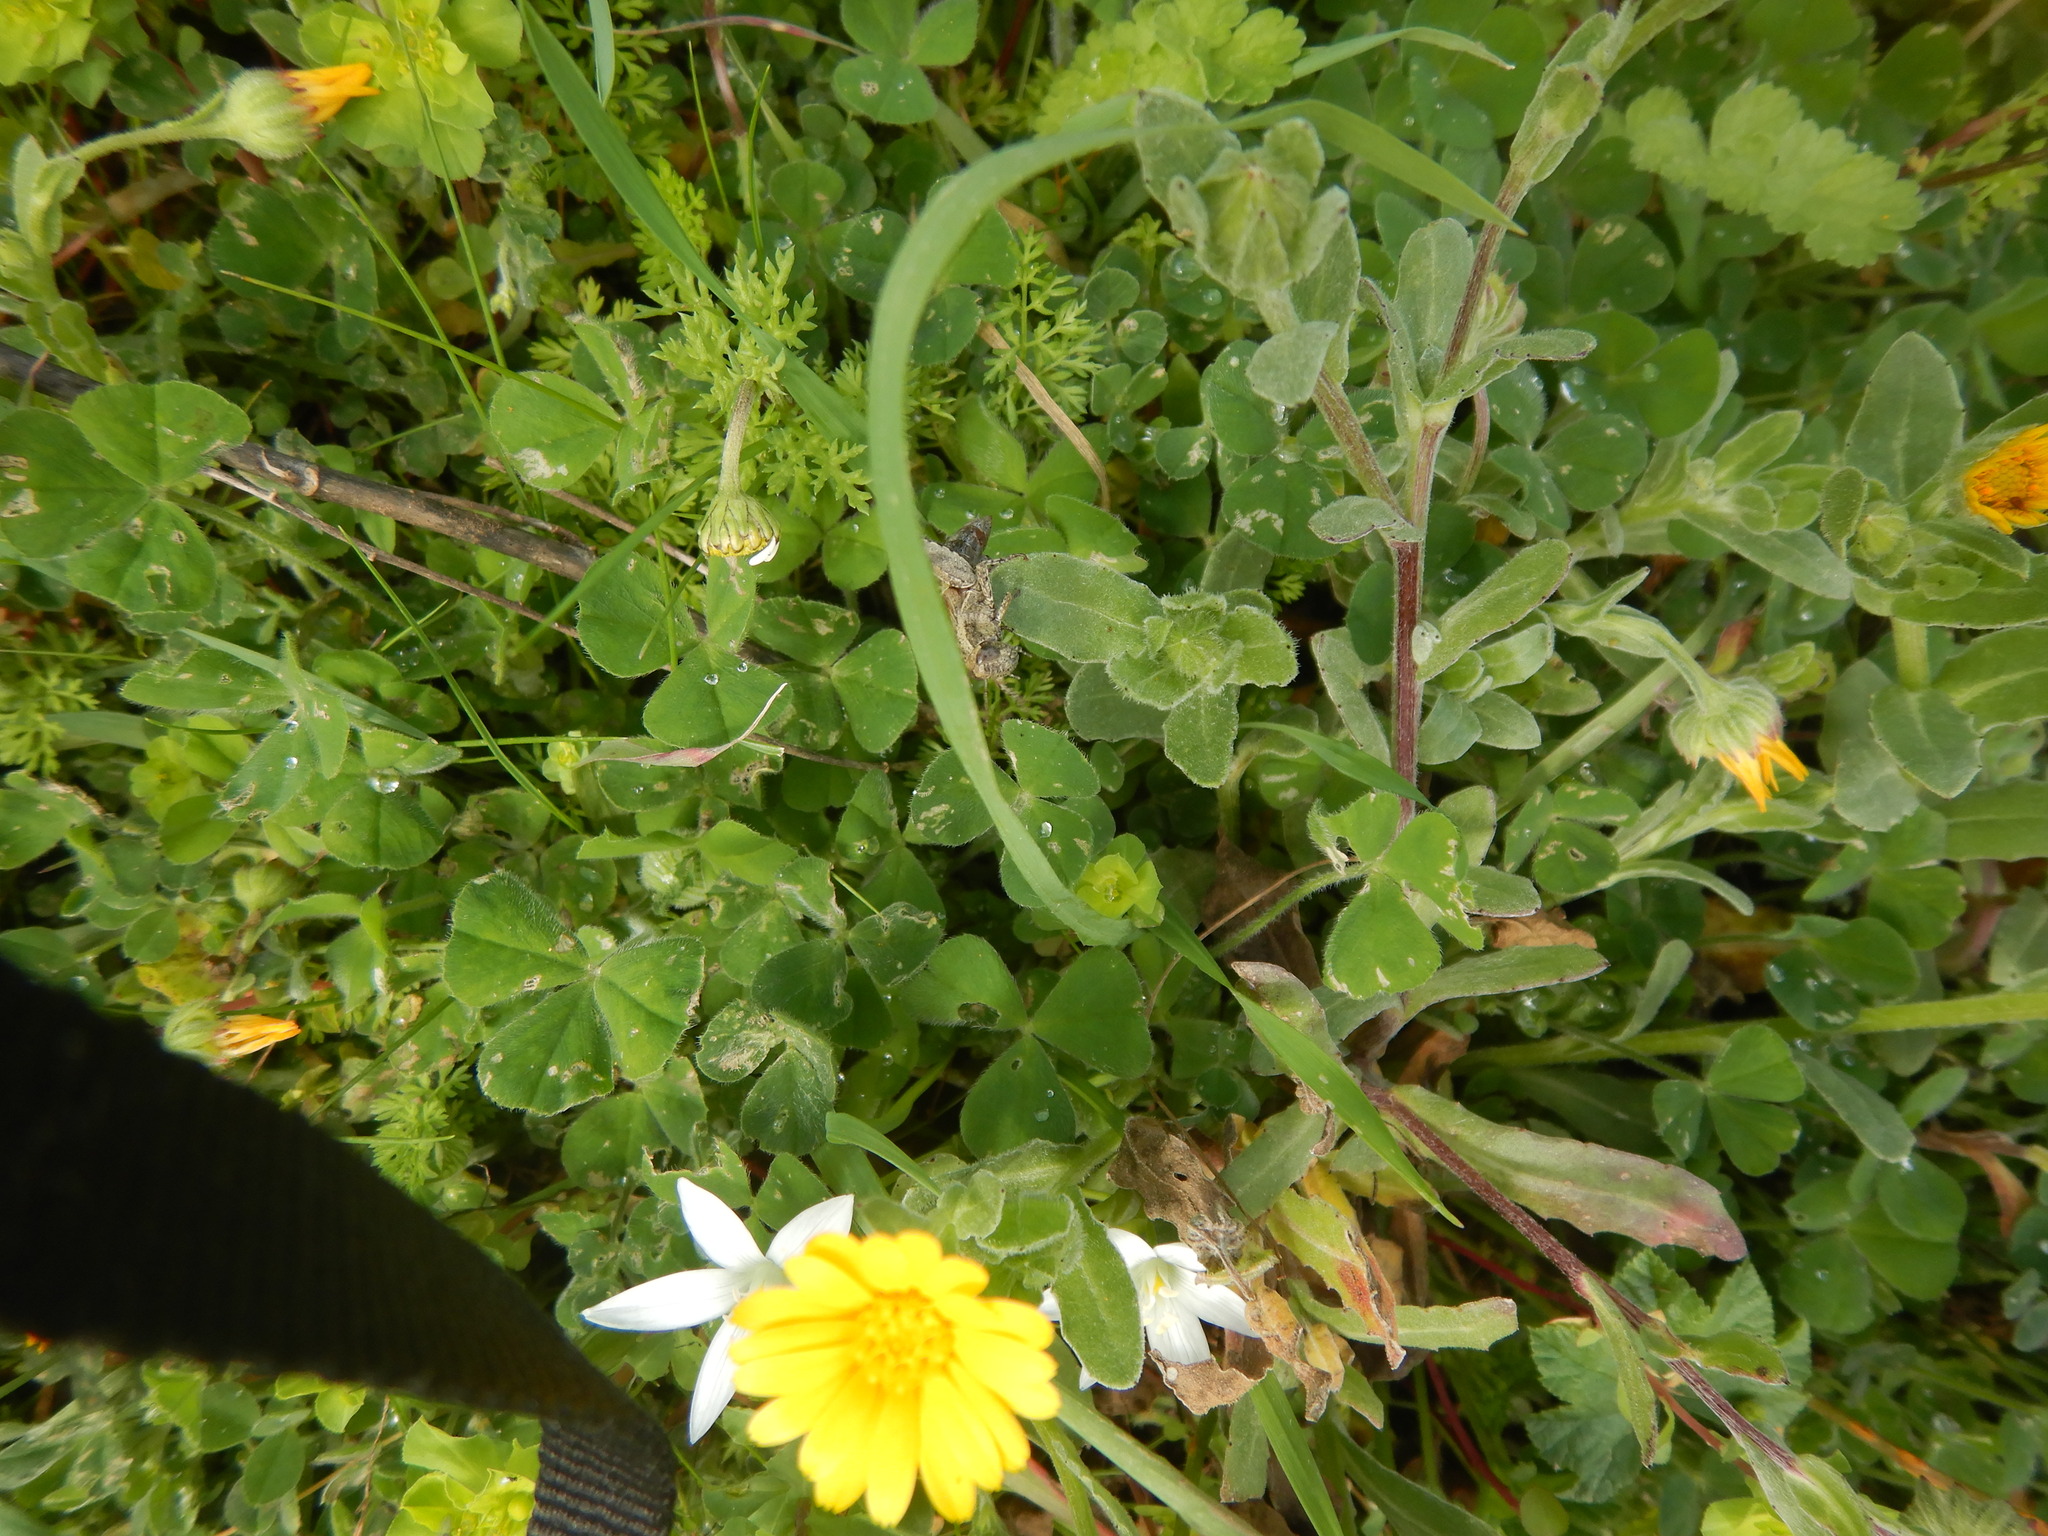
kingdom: Animalia
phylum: Arthropoda
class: Insecta
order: Orthoptera
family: Acrididae
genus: Pezotettix
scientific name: Pezotettix giornae
